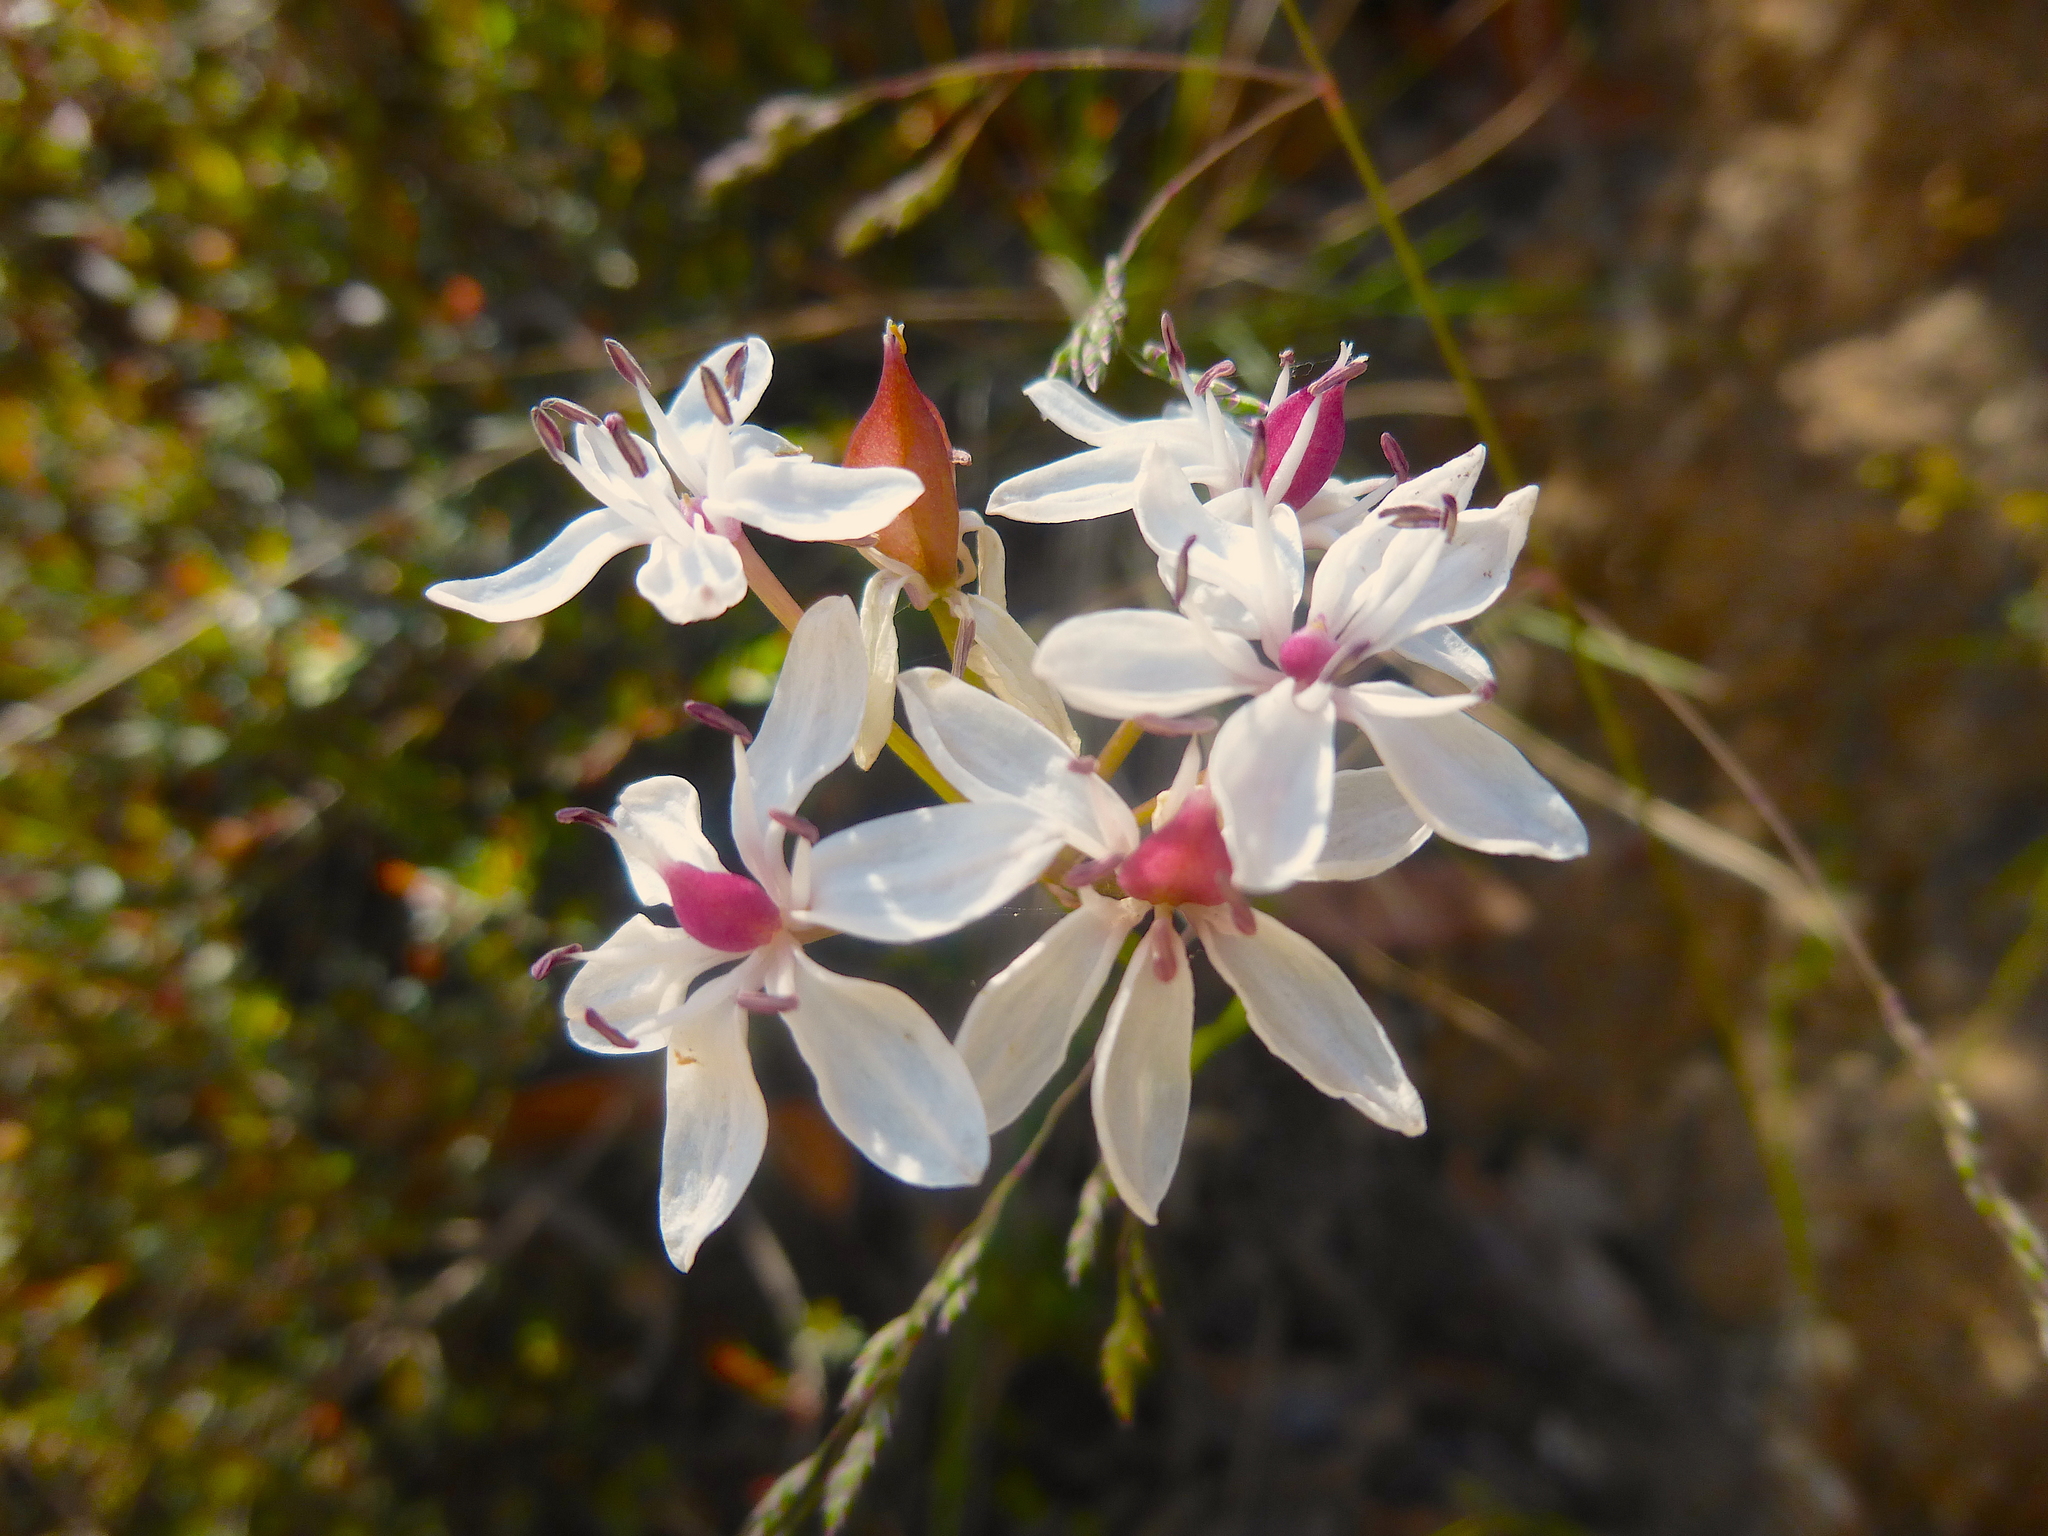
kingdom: Plantae
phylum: Tracheophyta
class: Liliopsida
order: Liliales
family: Colchicaceae
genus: Burchardia
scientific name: Burchardia umbellata
